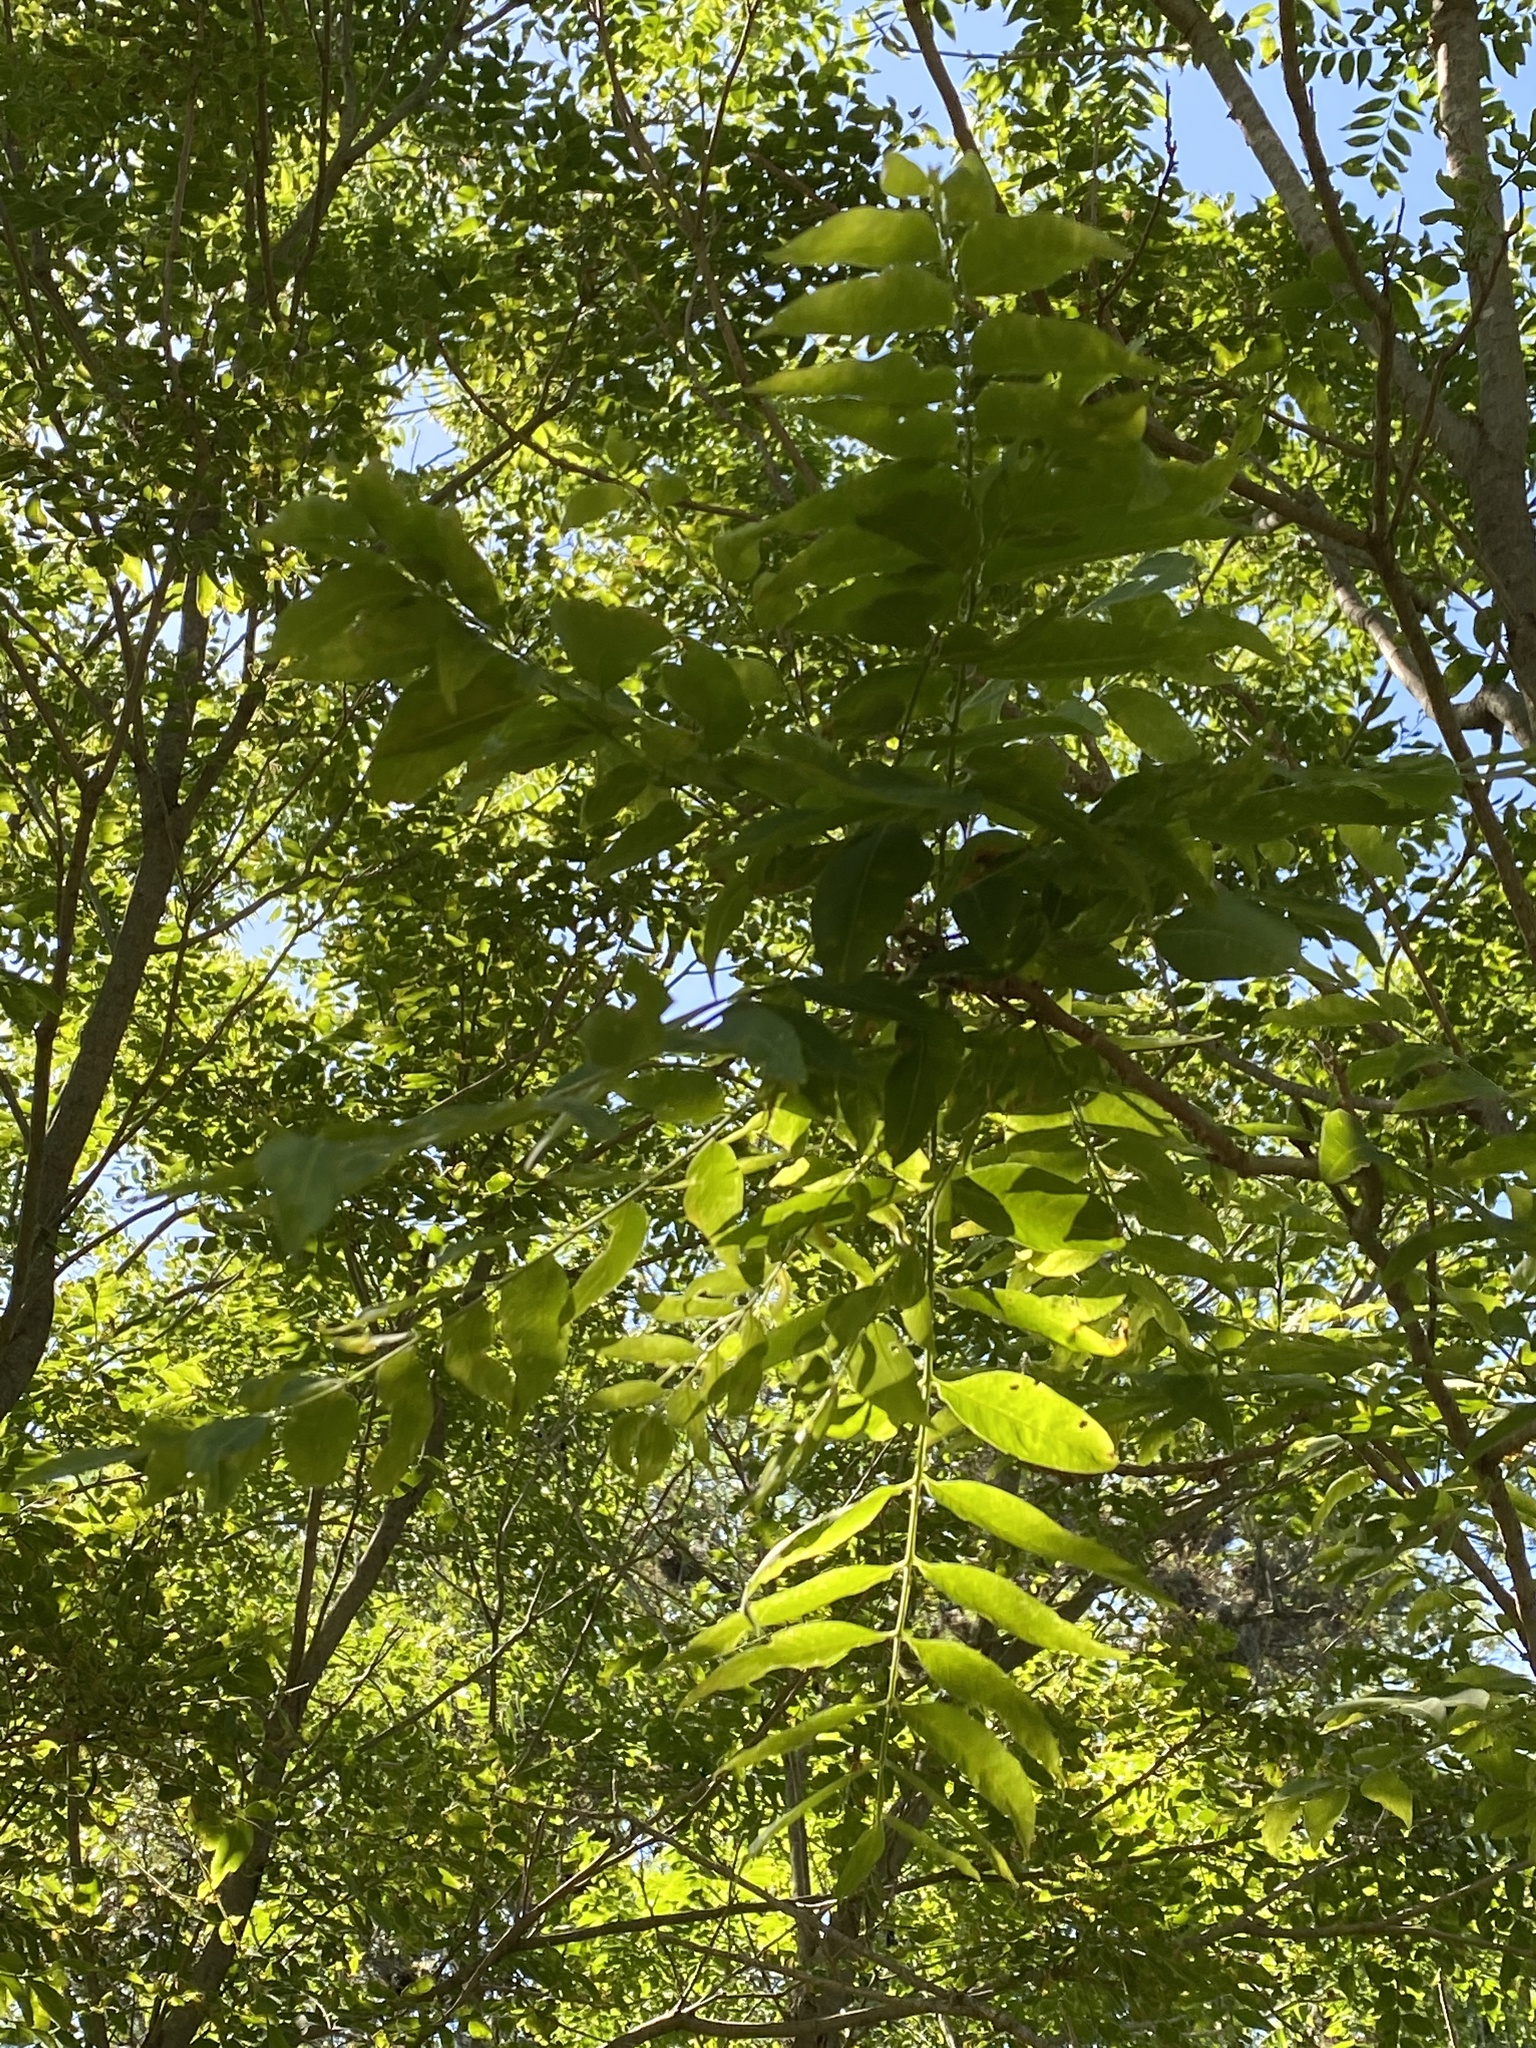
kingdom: Plantae
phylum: Tracheophyta
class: Magnoliopsida
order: Sapindales
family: Sapindaceae
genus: Sapindus
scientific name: Sapindus drummondii
